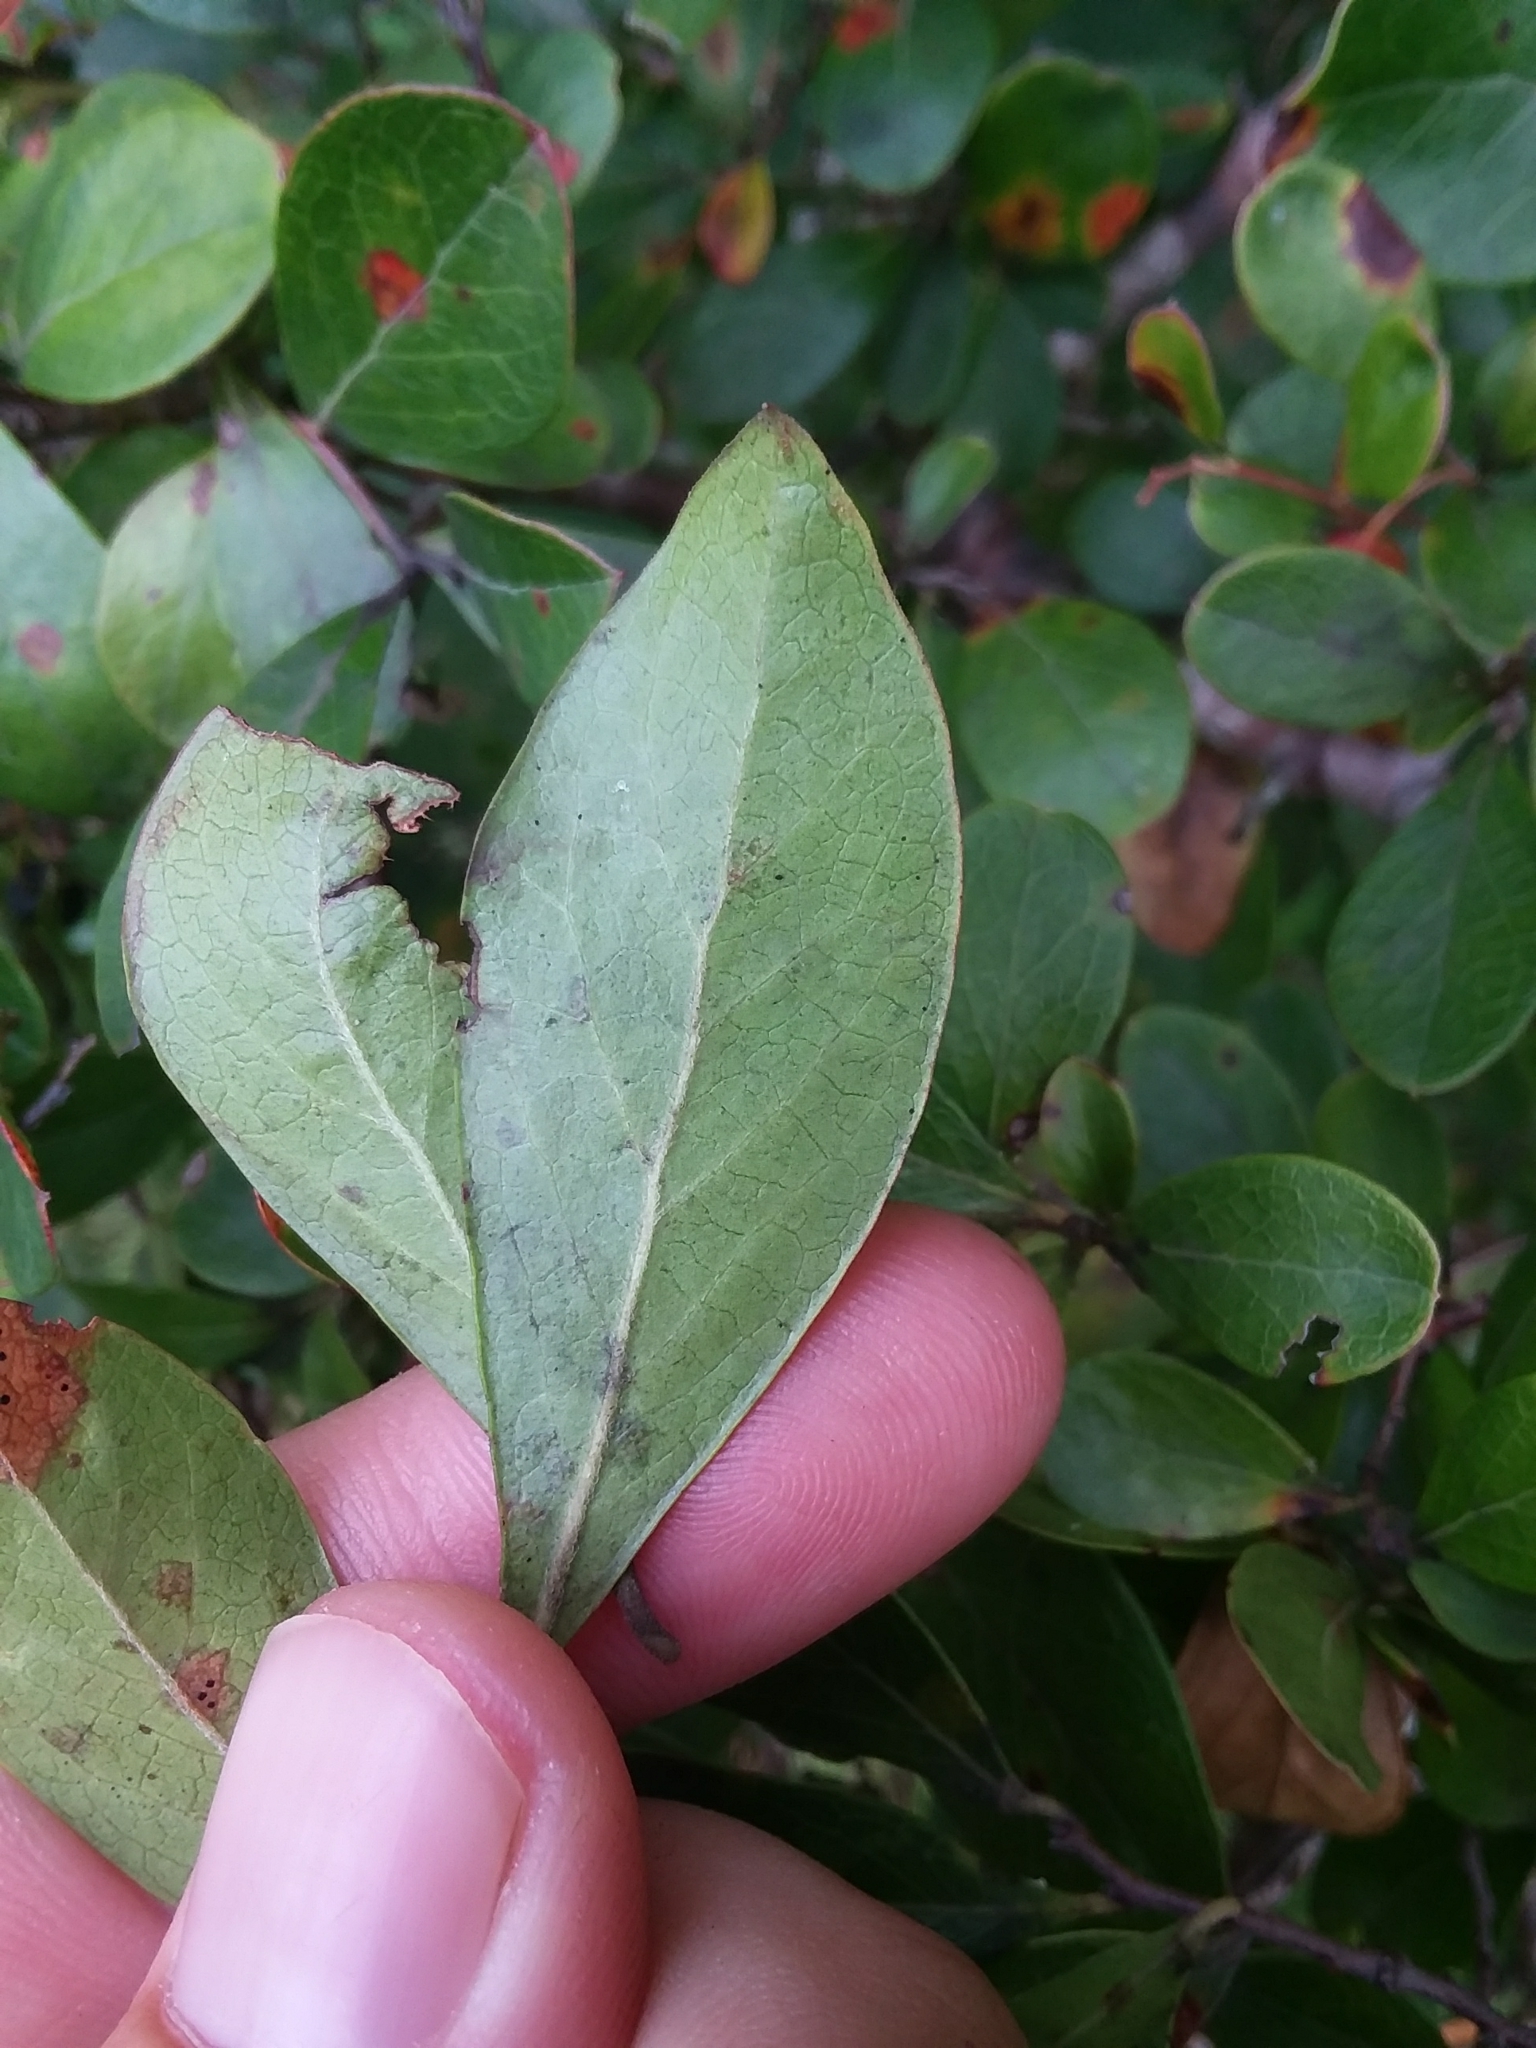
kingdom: Plantae
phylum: Tracheophyta
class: Magnoliopsida
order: Ericales
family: Ericaceae
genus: Vaccinium
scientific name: Vaccinium arboreum
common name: Farkleberry
